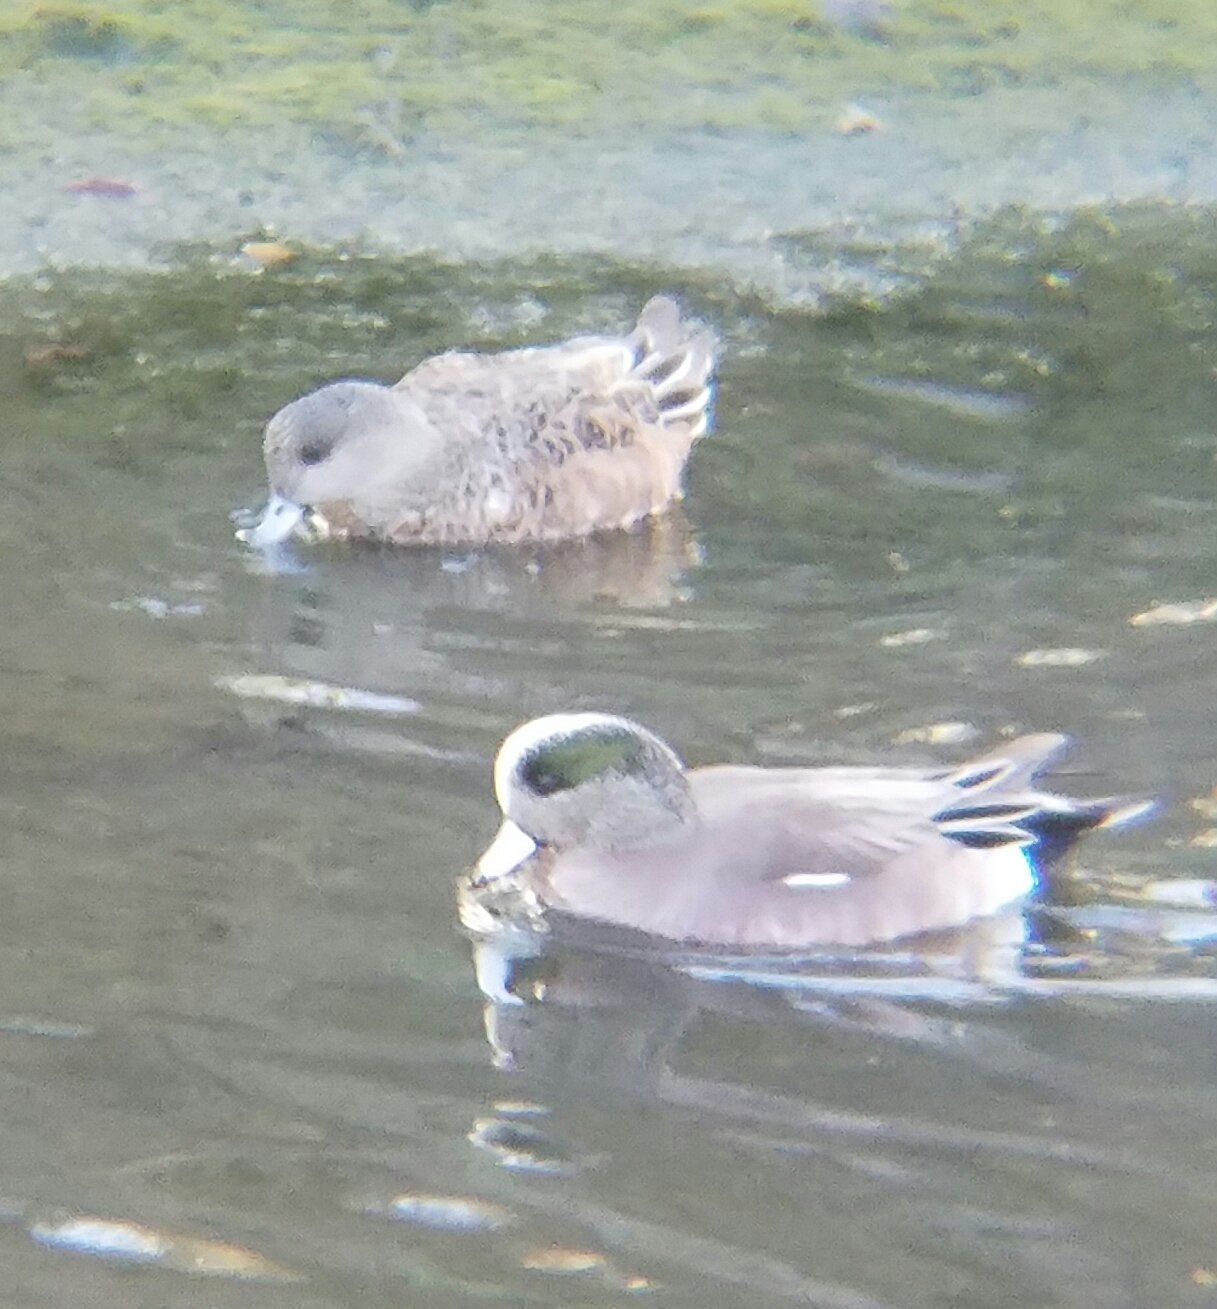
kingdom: Animalia
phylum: Chordata
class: Aves
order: Anseriformes
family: Anatidae
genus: Mareca
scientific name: Mareca americana
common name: American wigeon
